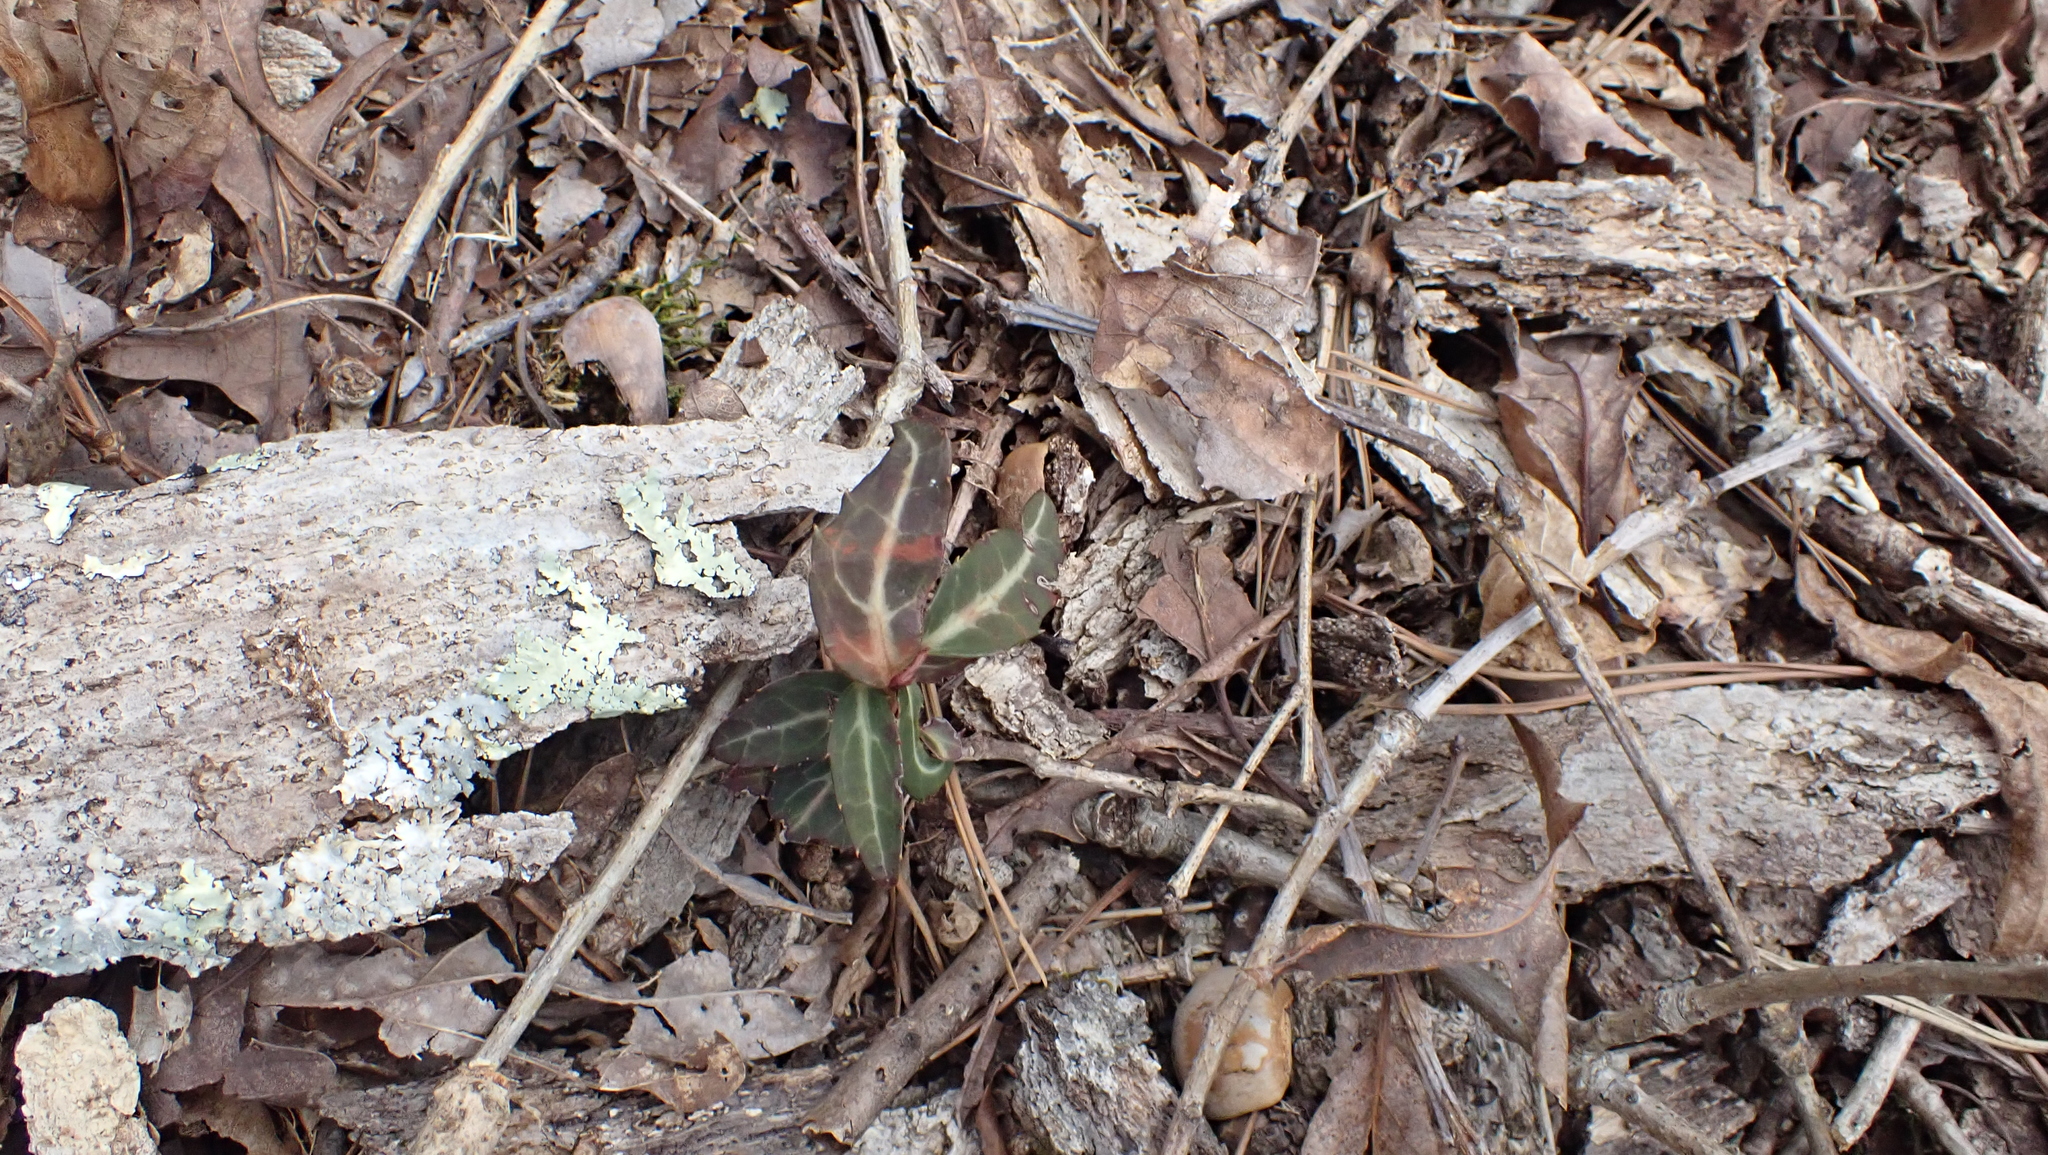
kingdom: Plantae
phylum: Tracheophyta
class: Magnoliopsida
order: Ericales
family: Ericaceae
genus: Chimaphila
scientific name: Chimaphila maculata
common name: Spotted pipsissewa
